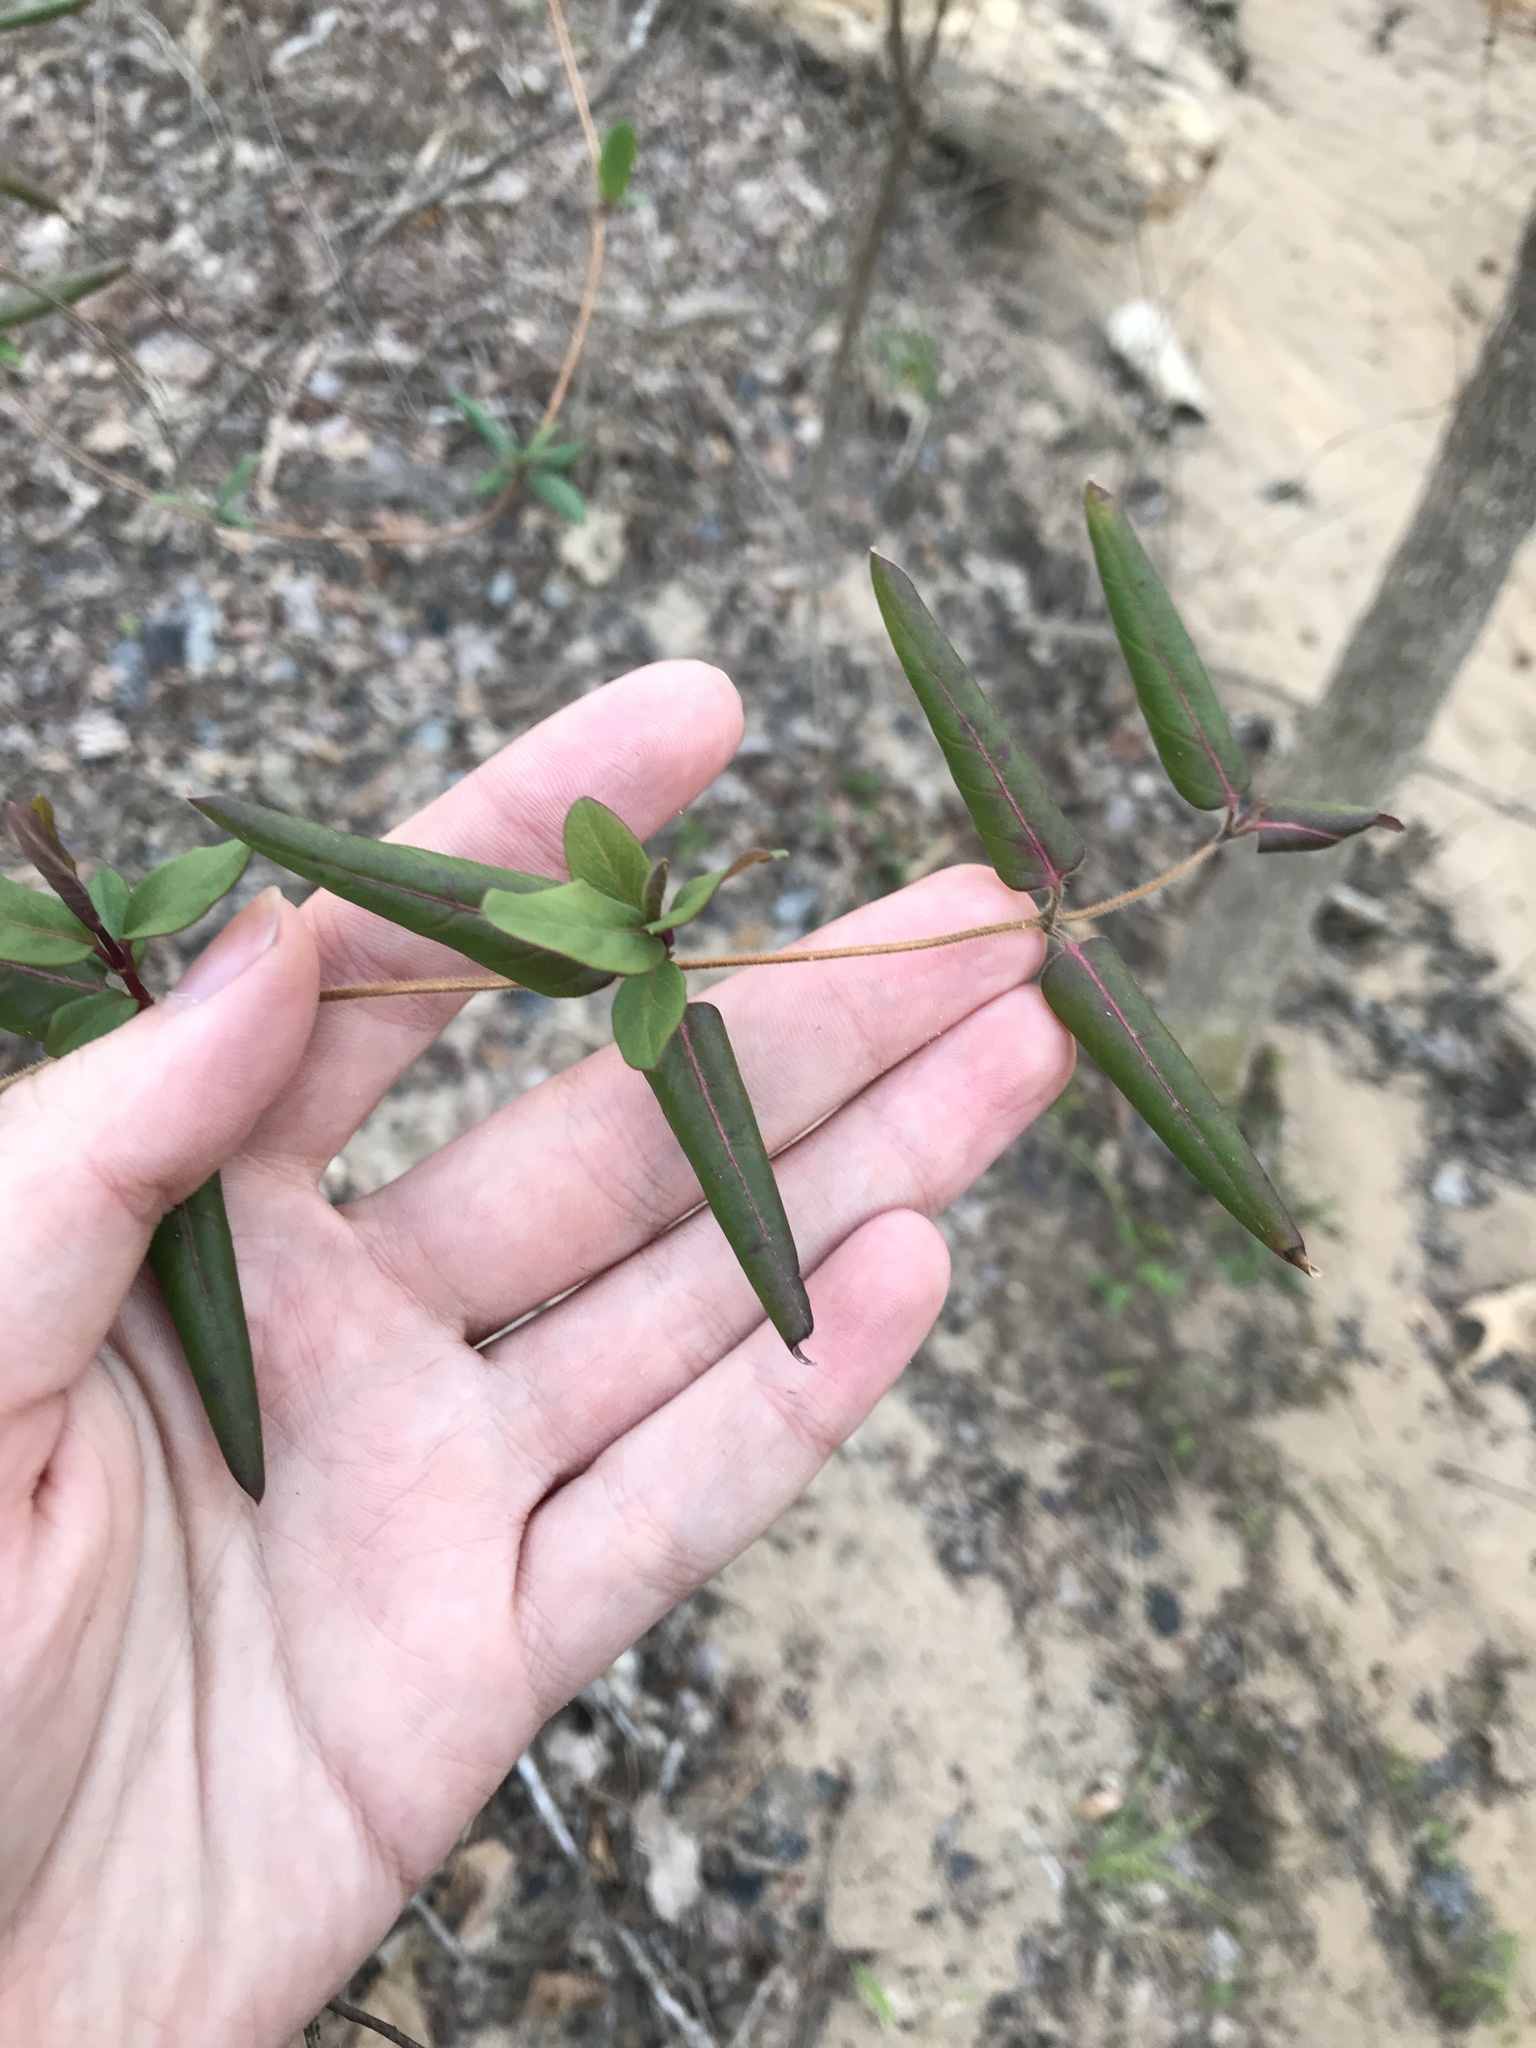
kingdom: Plantae
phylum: Tracheophyta
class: Magnoliopsida
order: Dipsacales
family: Caprifoliaceae
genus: Lonicera
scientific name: Lonicera japonica
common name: Japanese honeysuckle
